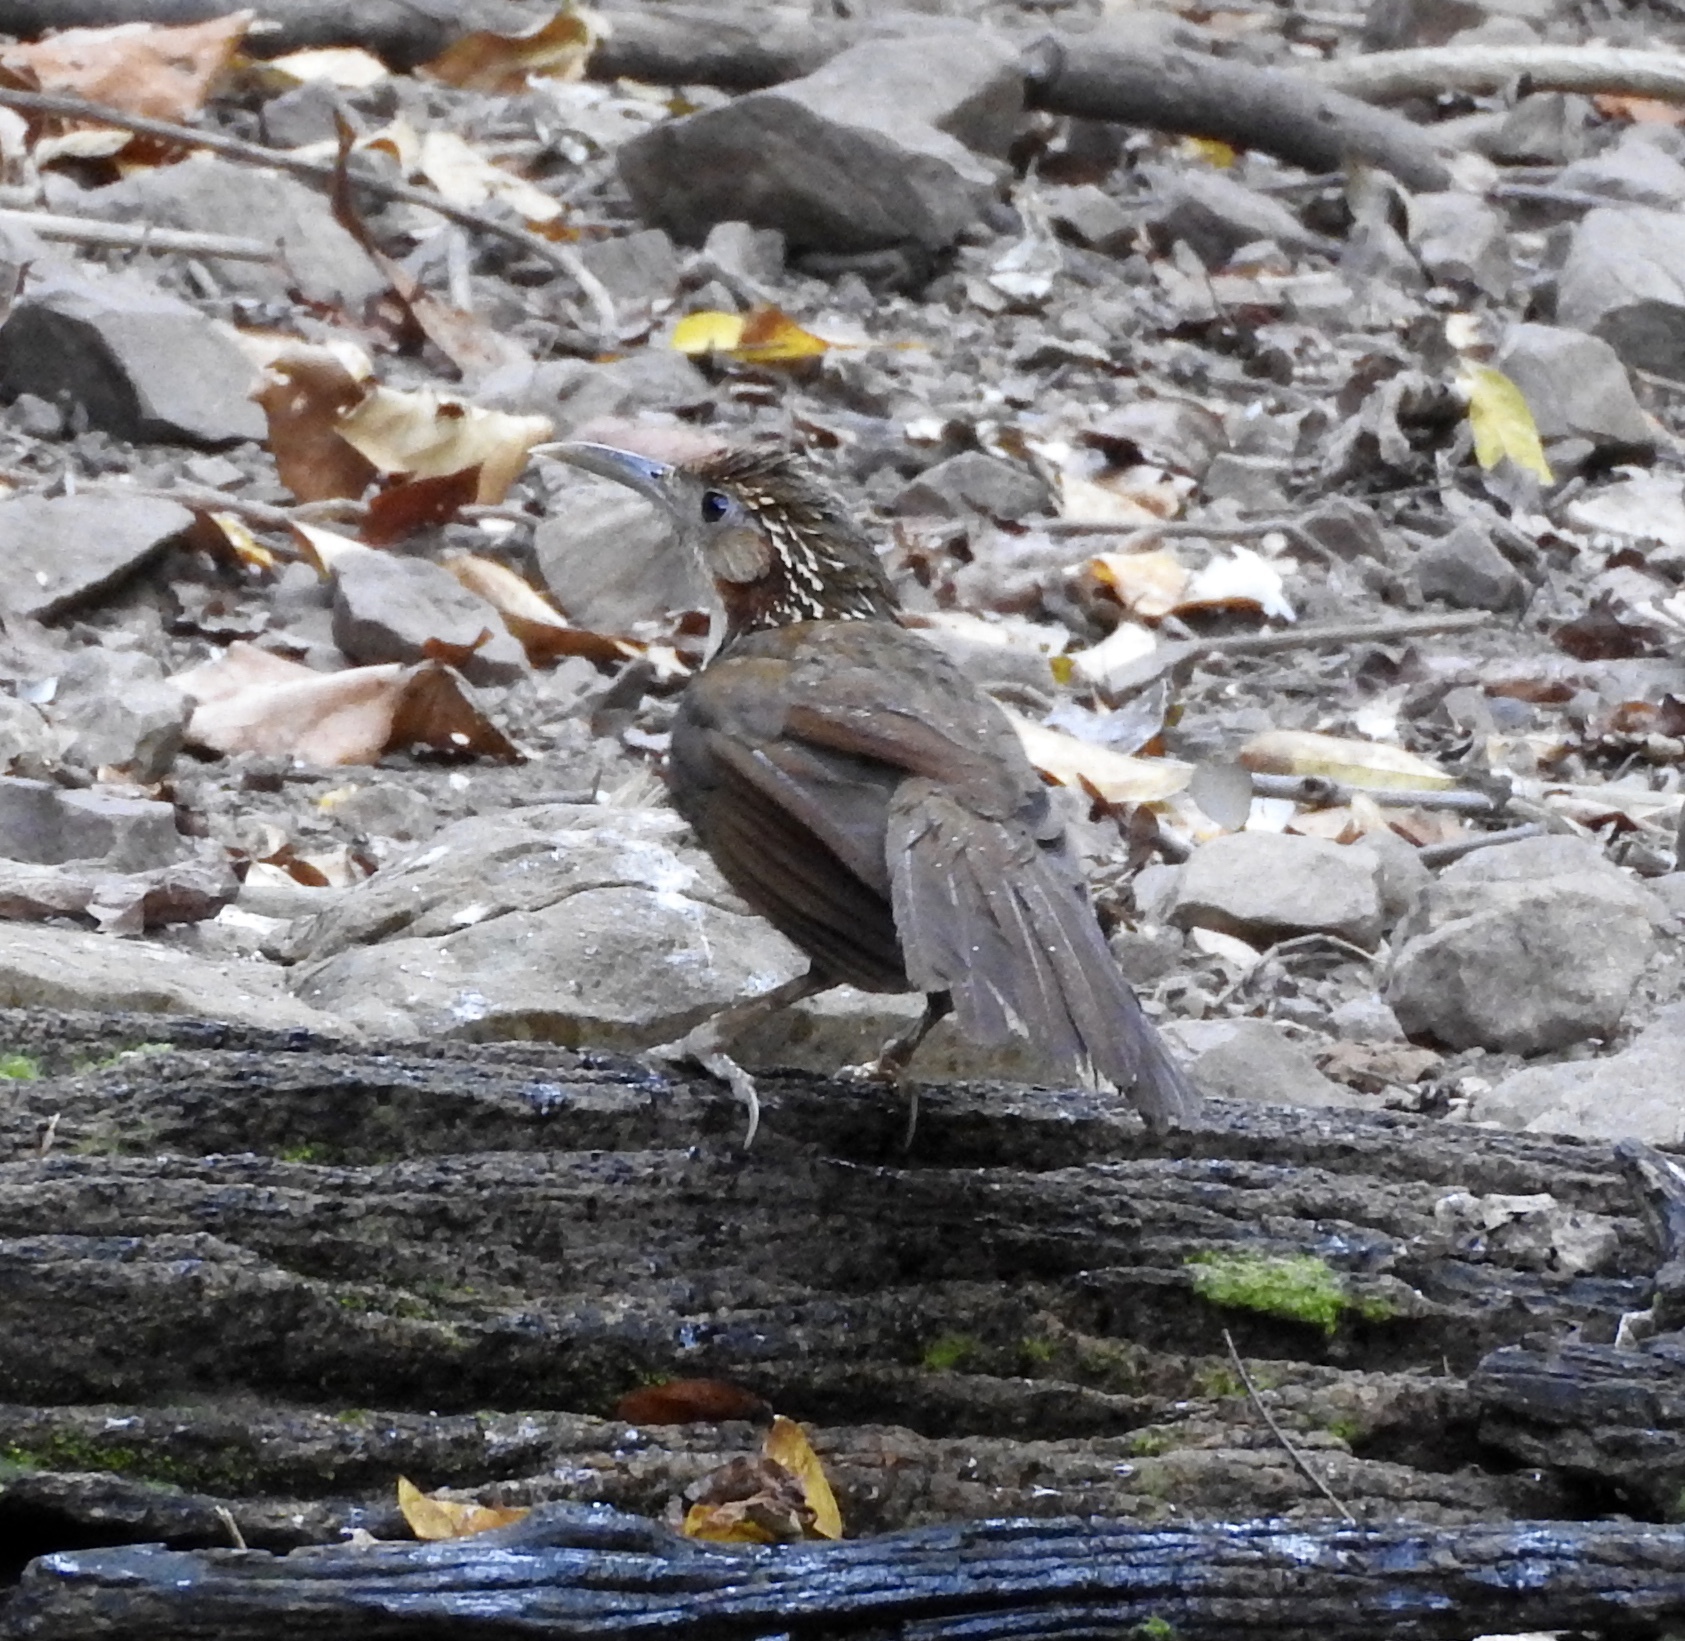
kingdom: Animalia
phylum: Chordata
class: Aves
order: Passeriformes
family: Timaliidae
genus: Pomatorhinus
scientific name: Pomatorhinus hypoleucos
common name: Large scimitar babbler
